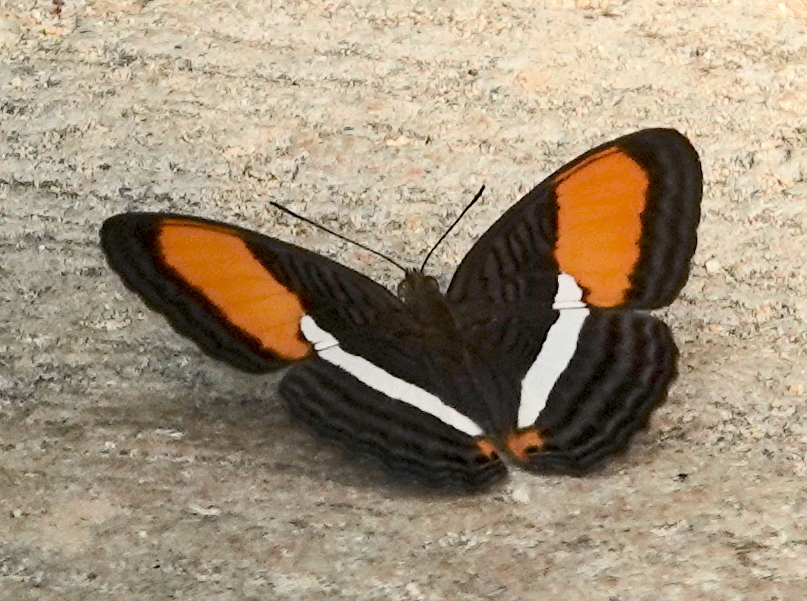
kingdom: Animalia
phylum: Arthropoda
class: Insecta
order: Lepidoptera
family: Nymphalidae
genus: Limenitis
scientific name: Limenitis cytherea
